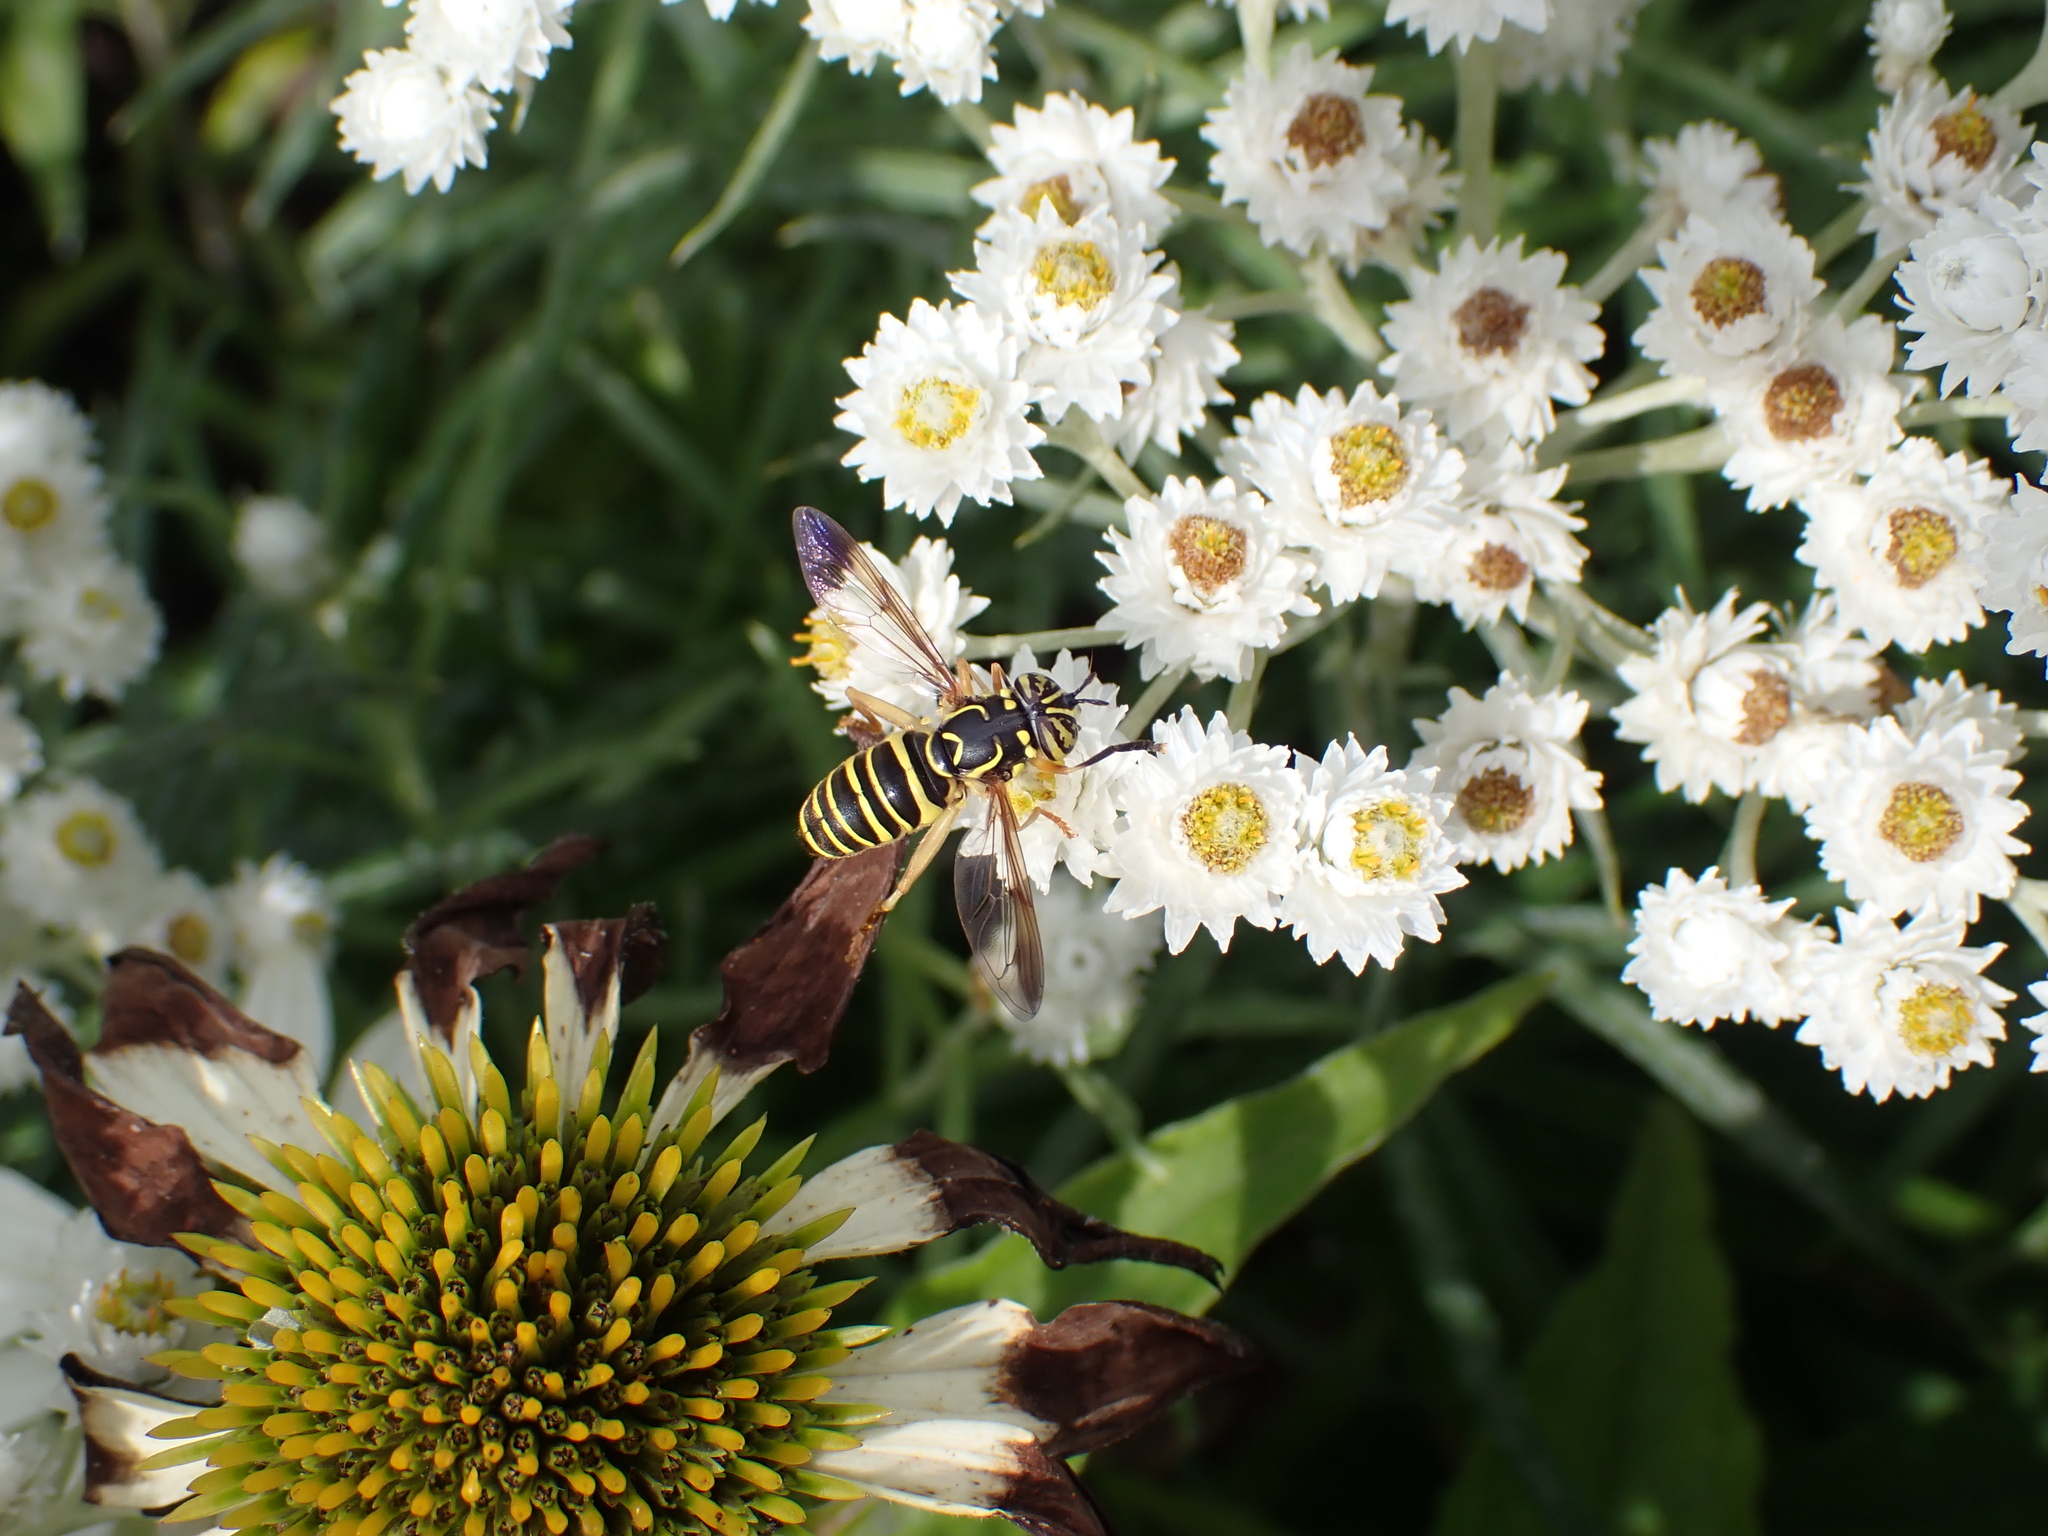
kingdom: Animalia
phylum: Arthropoda
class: Insecta
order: Diptera
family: Syrphidae
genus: Spilomyia
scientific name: Spilomyia longicornis
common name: Eastern hornet fly
